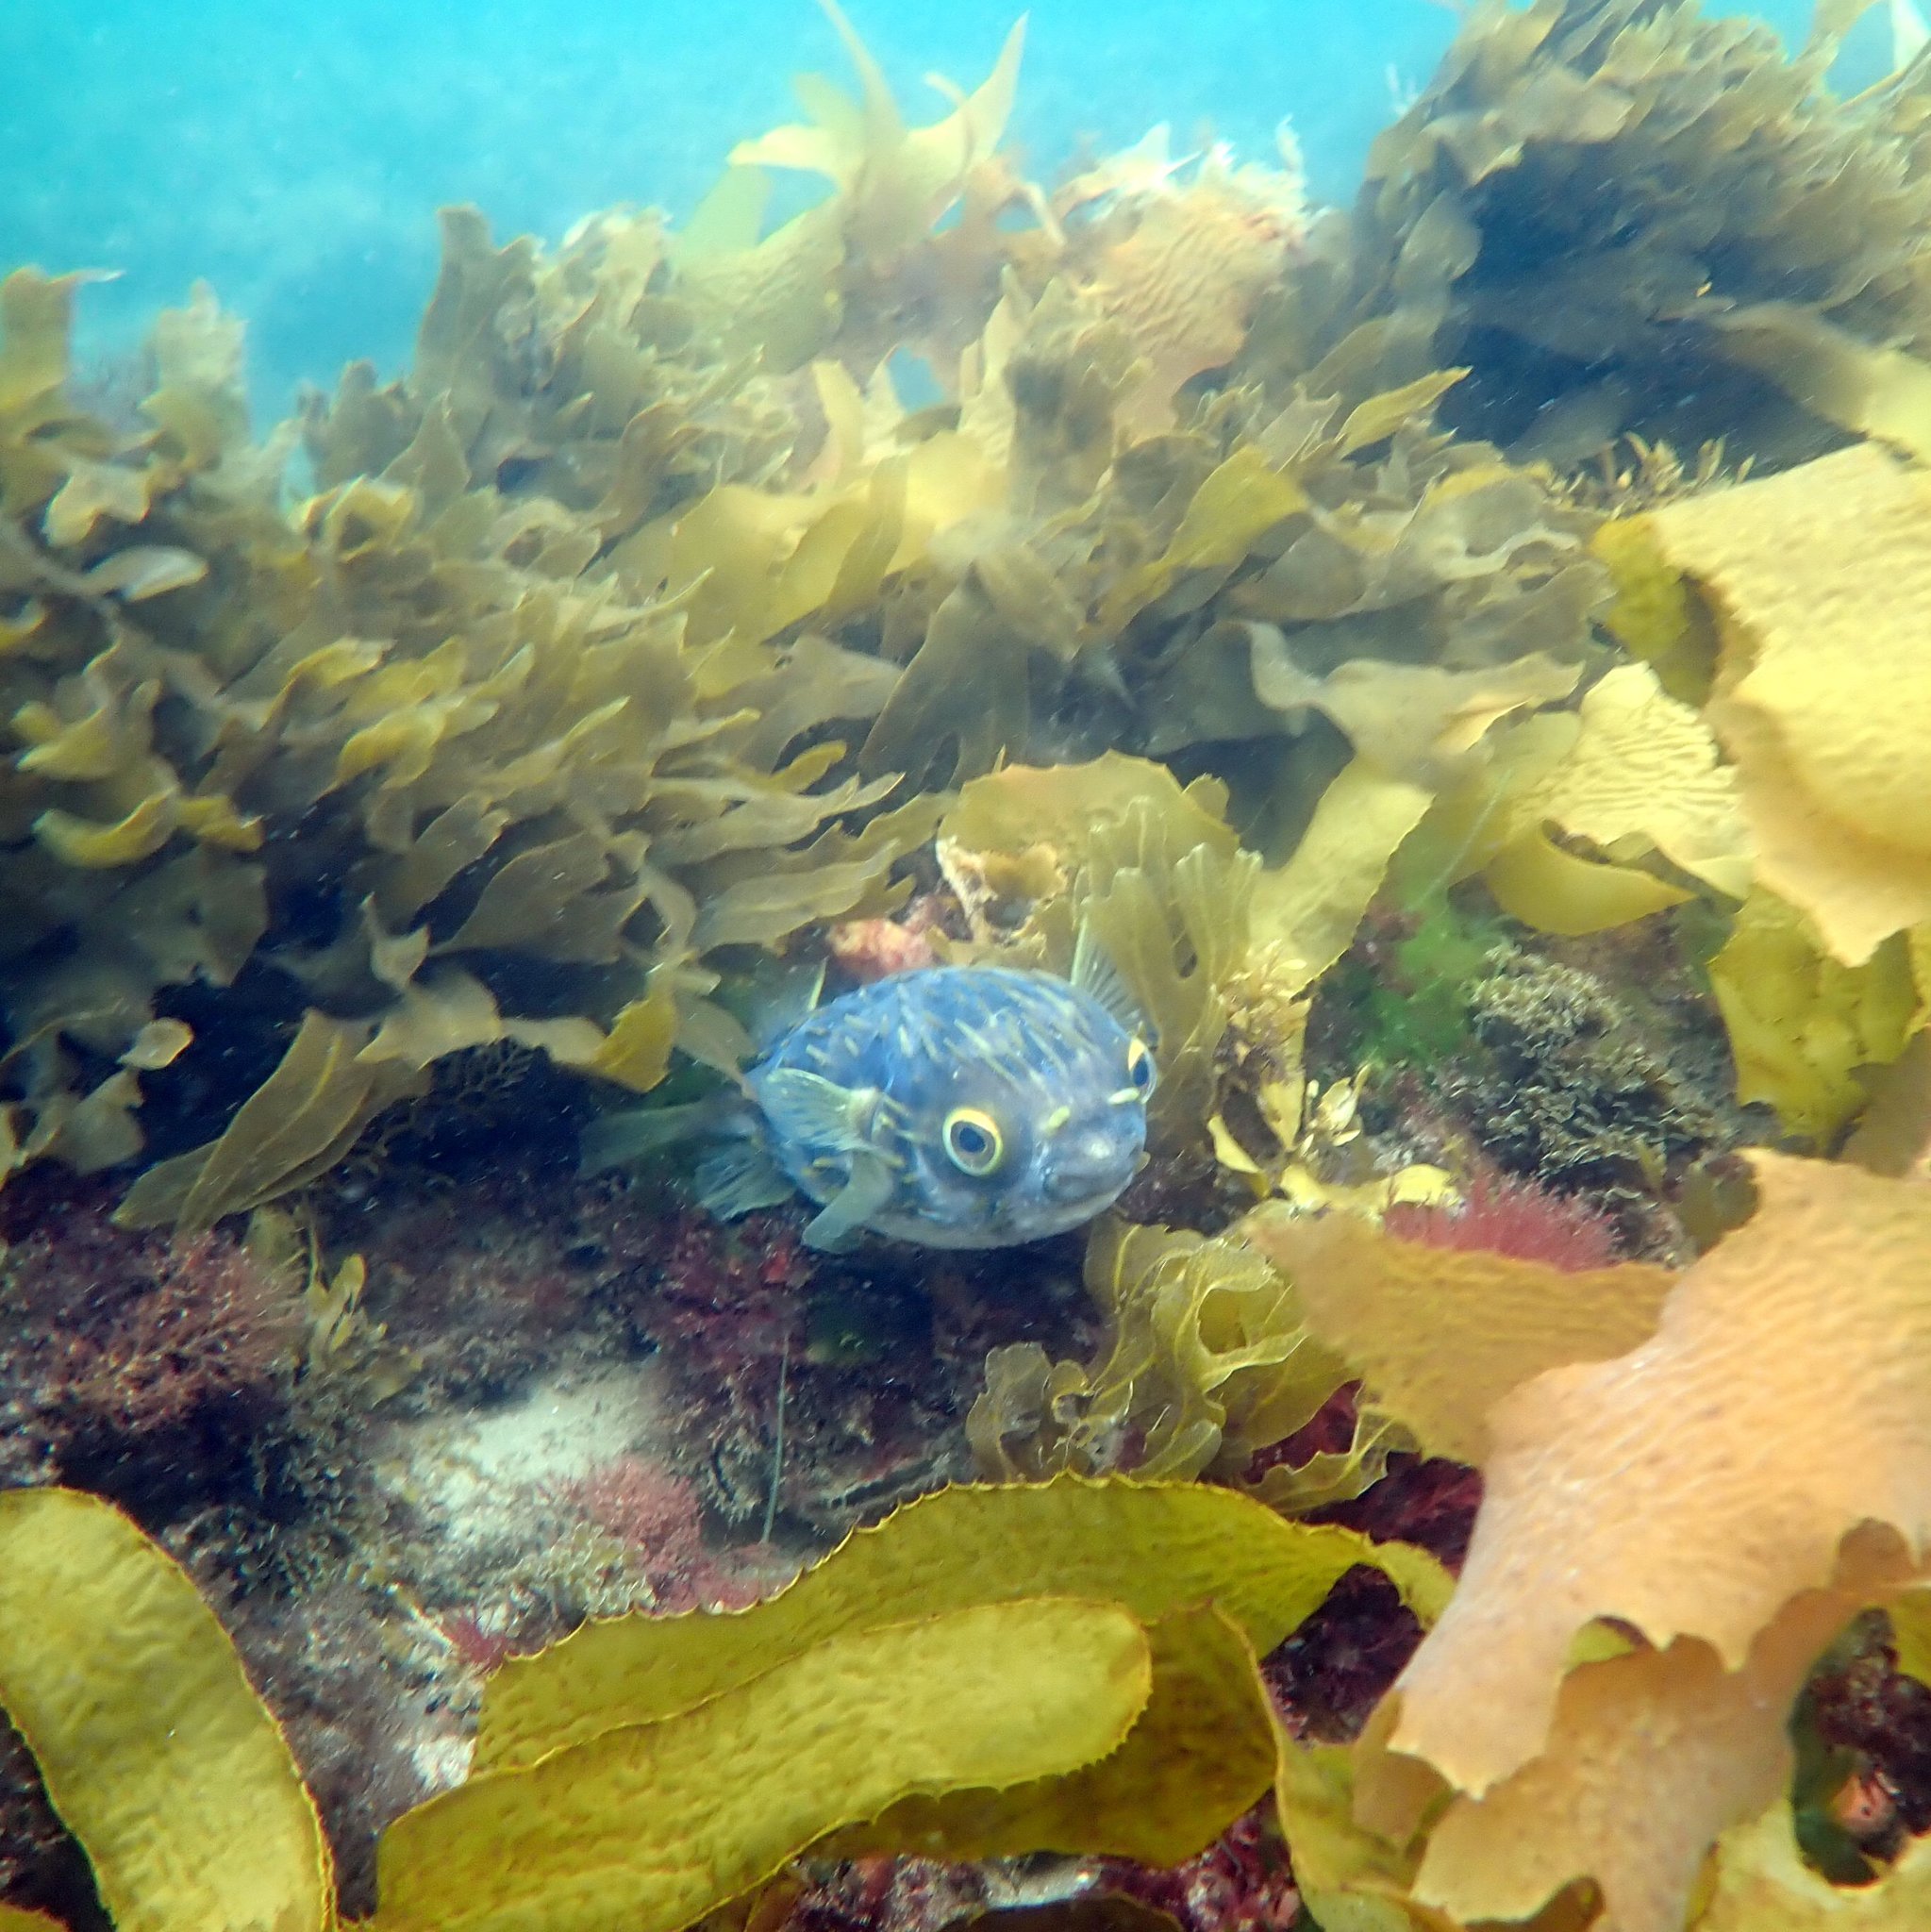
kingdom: Animalia
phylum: Chordata
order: Tetraodontiformes
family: Diodontidae
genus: Diodon
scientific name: Diodon nicthemerus
